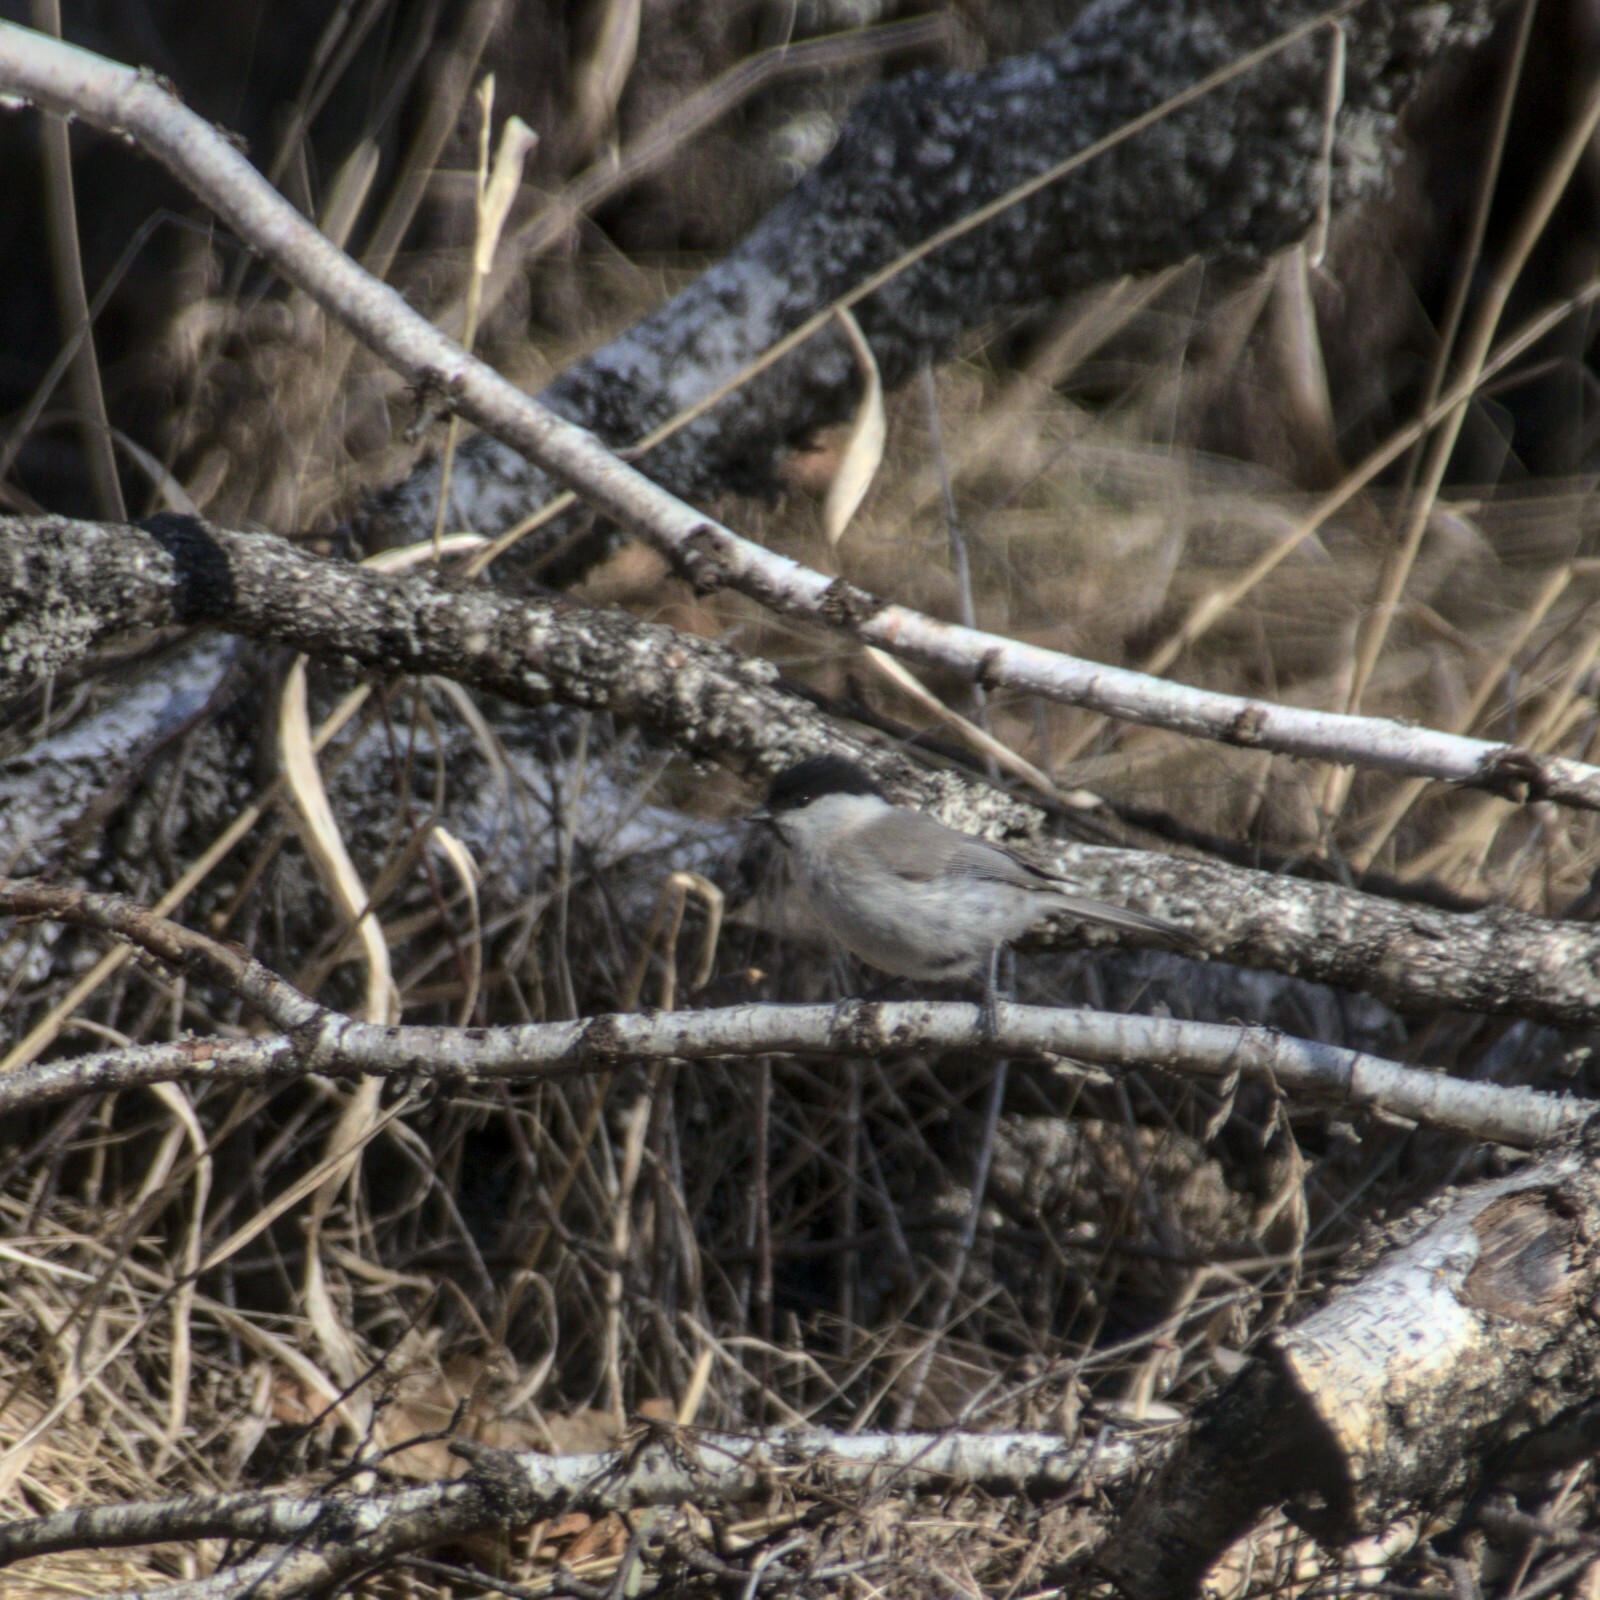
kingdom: Animalia
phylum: Chordata
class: Aves
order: Passeriformes
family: Paridae
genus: Poecile
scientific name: Poecile palustris
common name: Marsh tit
